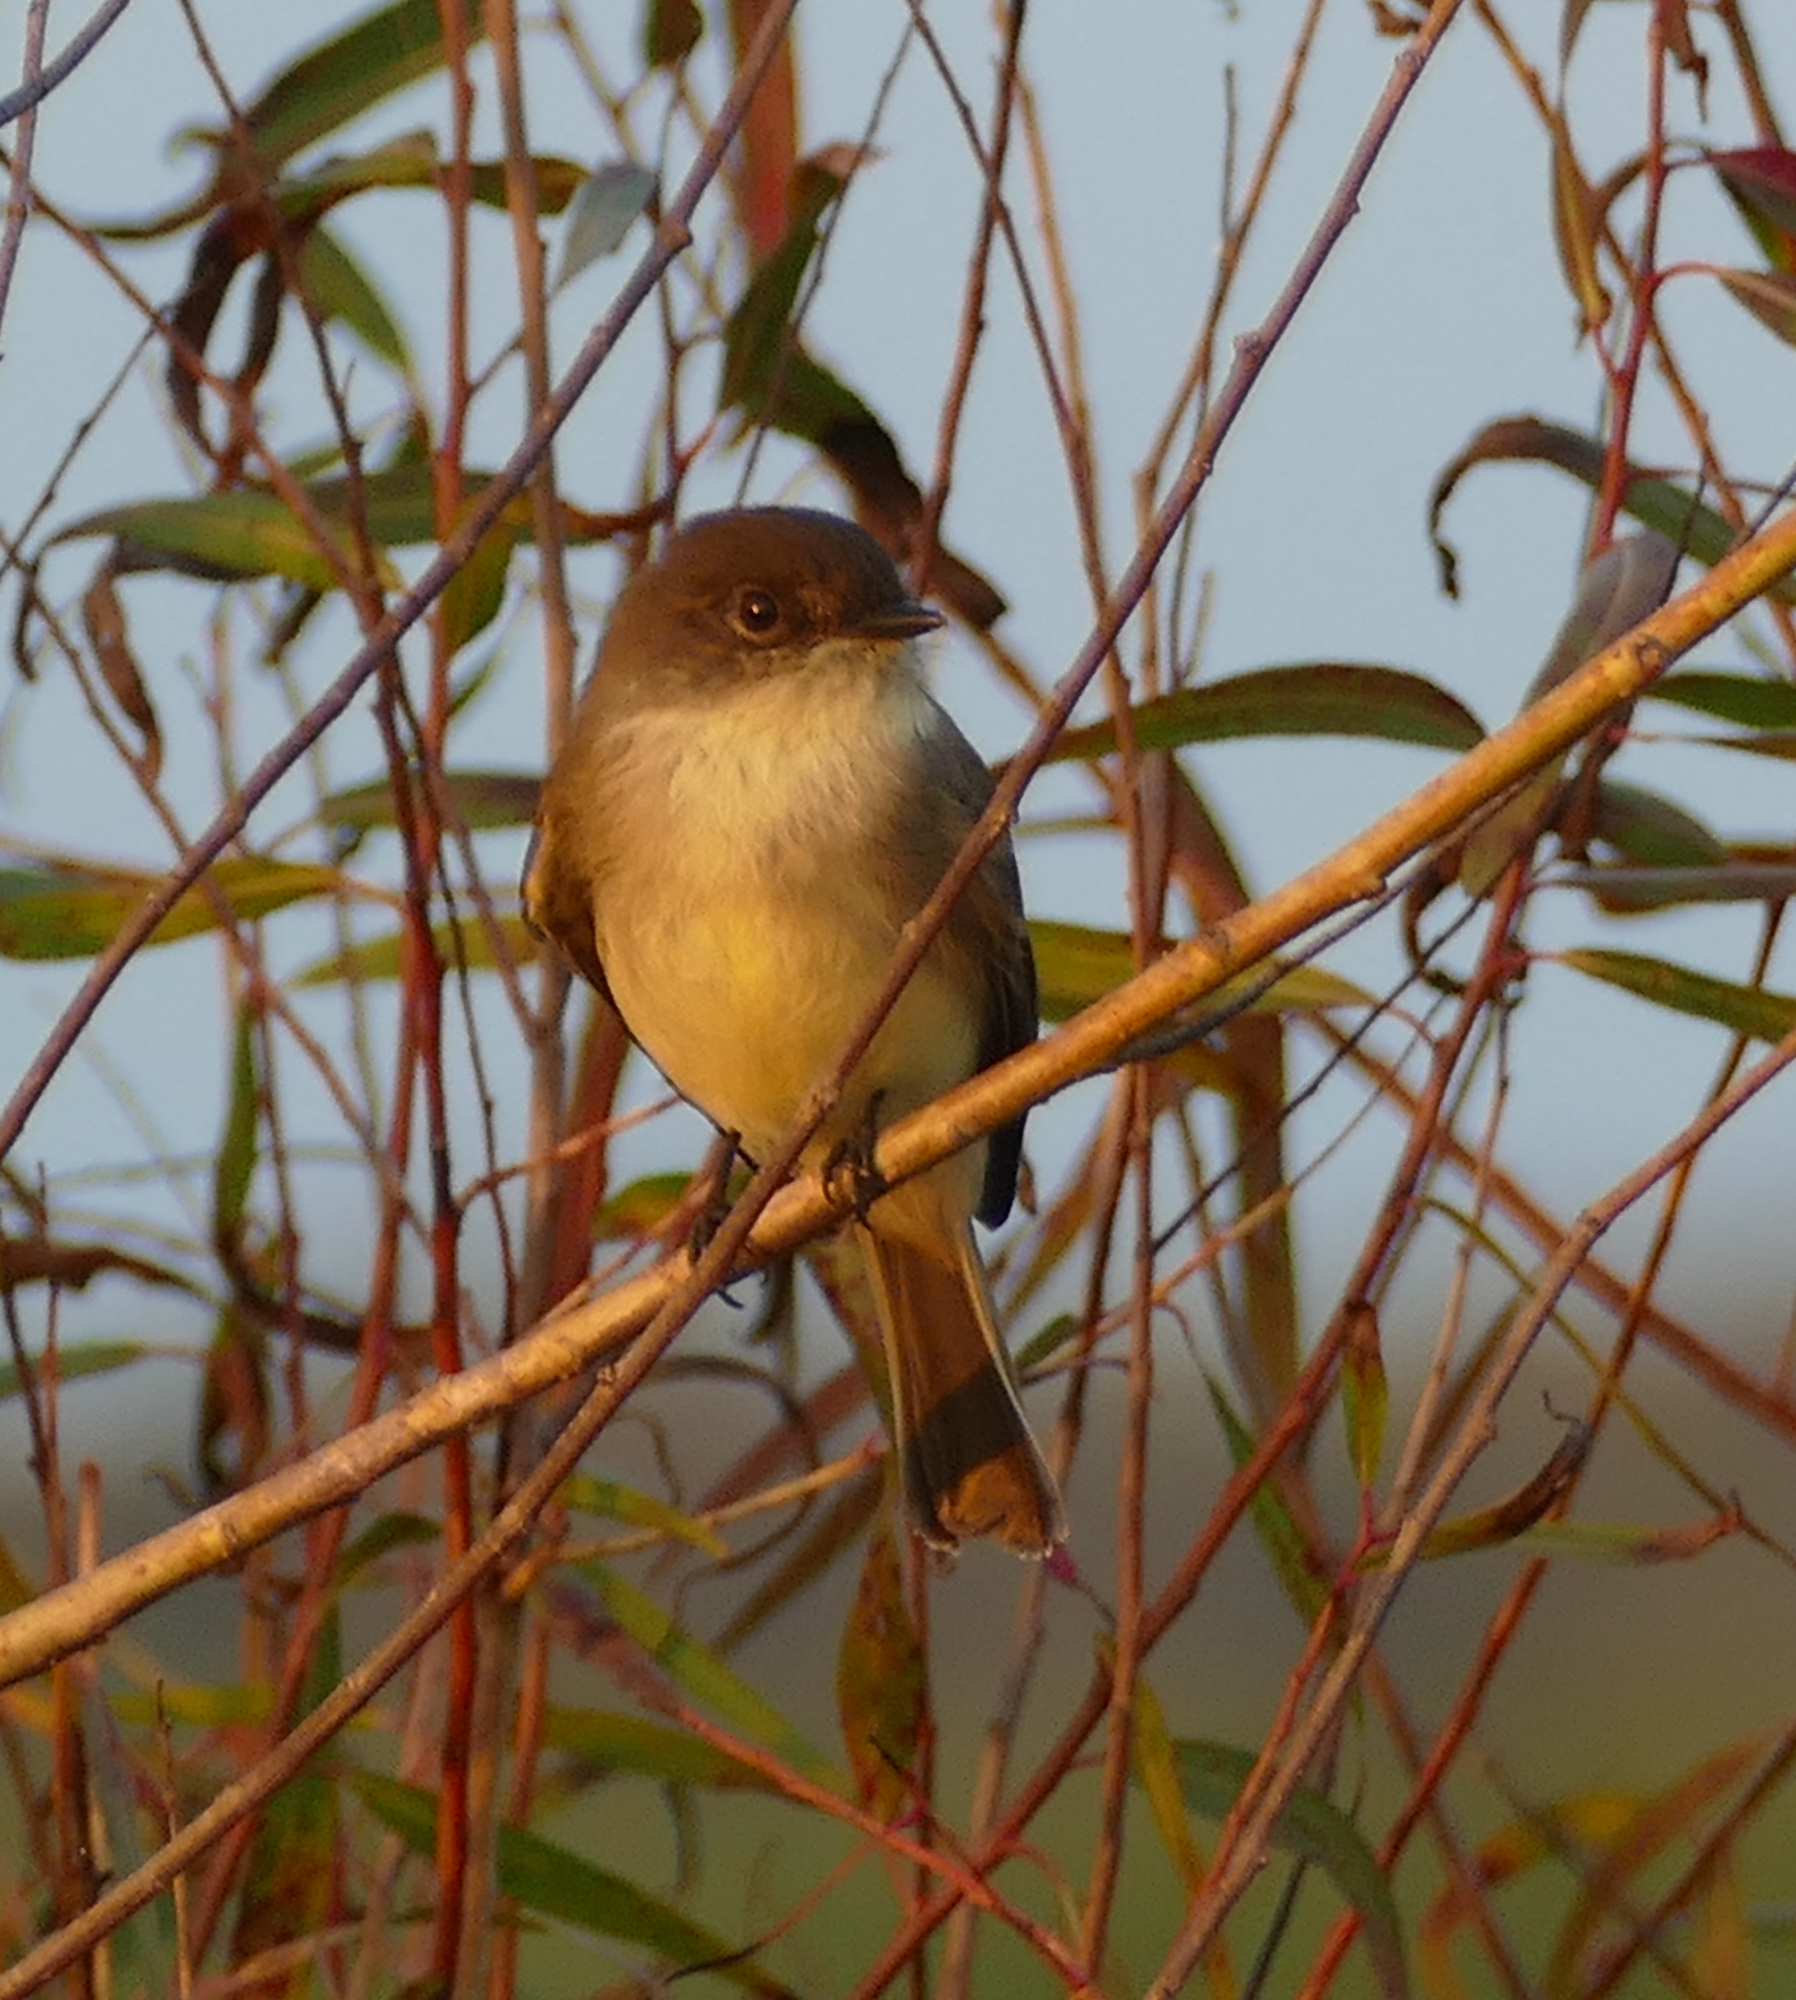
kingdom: Animalia
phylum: Chordata
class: Aves
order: Passeriformes
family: Tyrannidae
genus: Sayornis
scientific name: Sayornis phoebe
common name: Eastern phoebe
